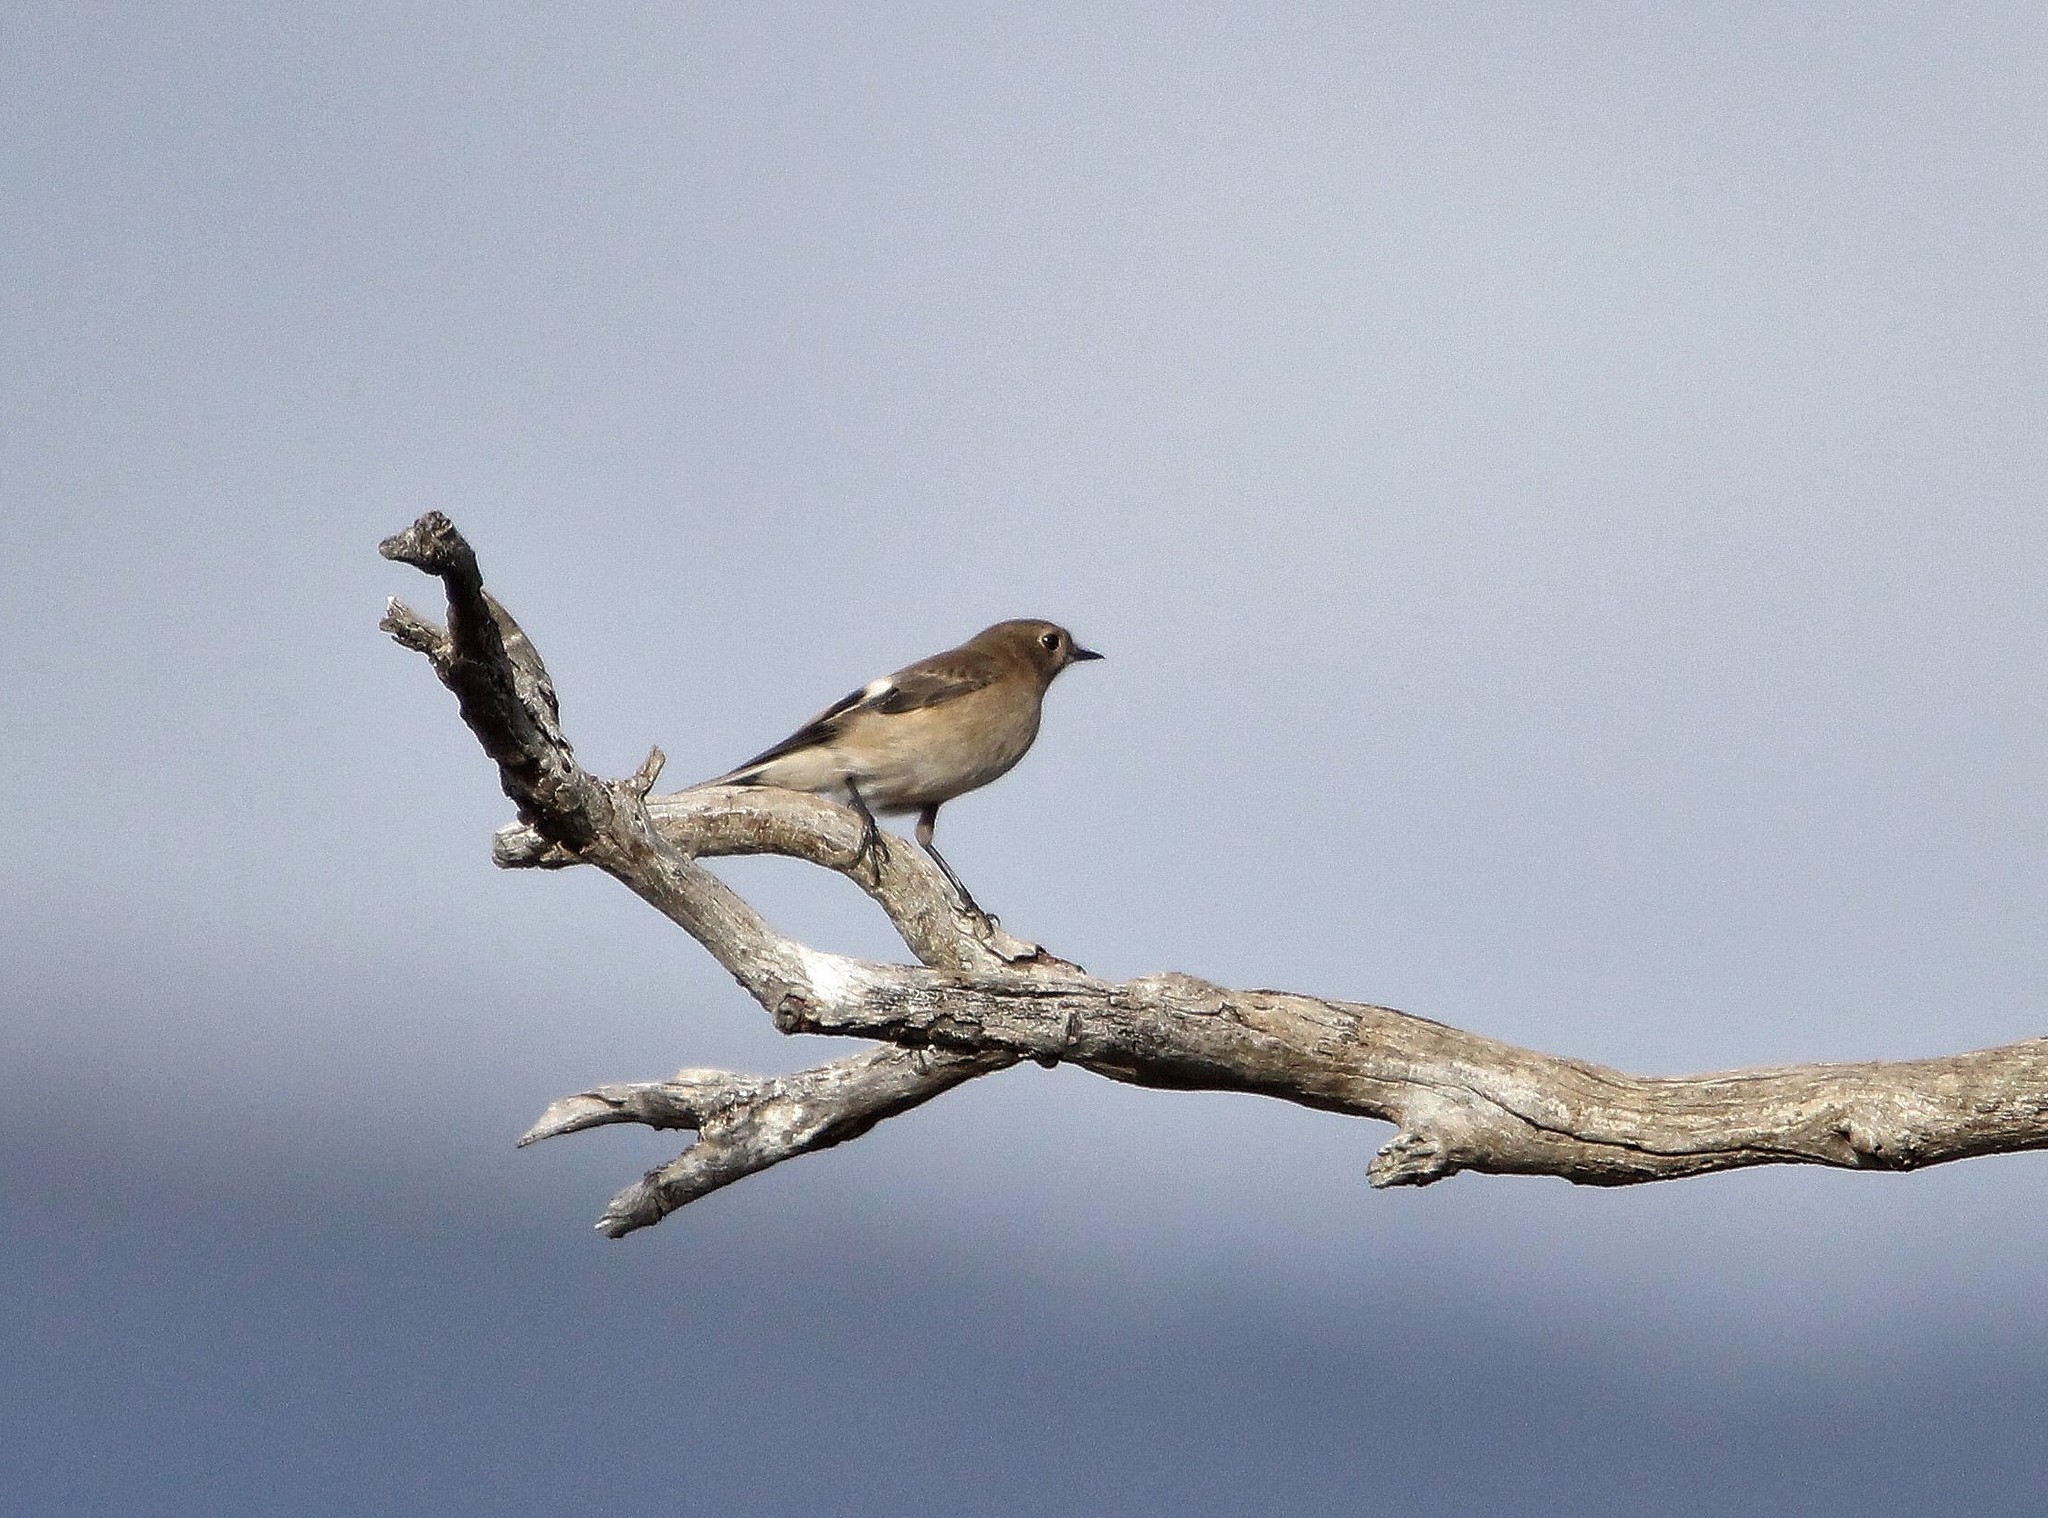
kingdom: Animalia
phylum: Chordata
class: Aves
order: Passeriformes
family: Petroicidae
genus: Petroica
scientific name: Petroica phoenicea
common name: Flame robin
